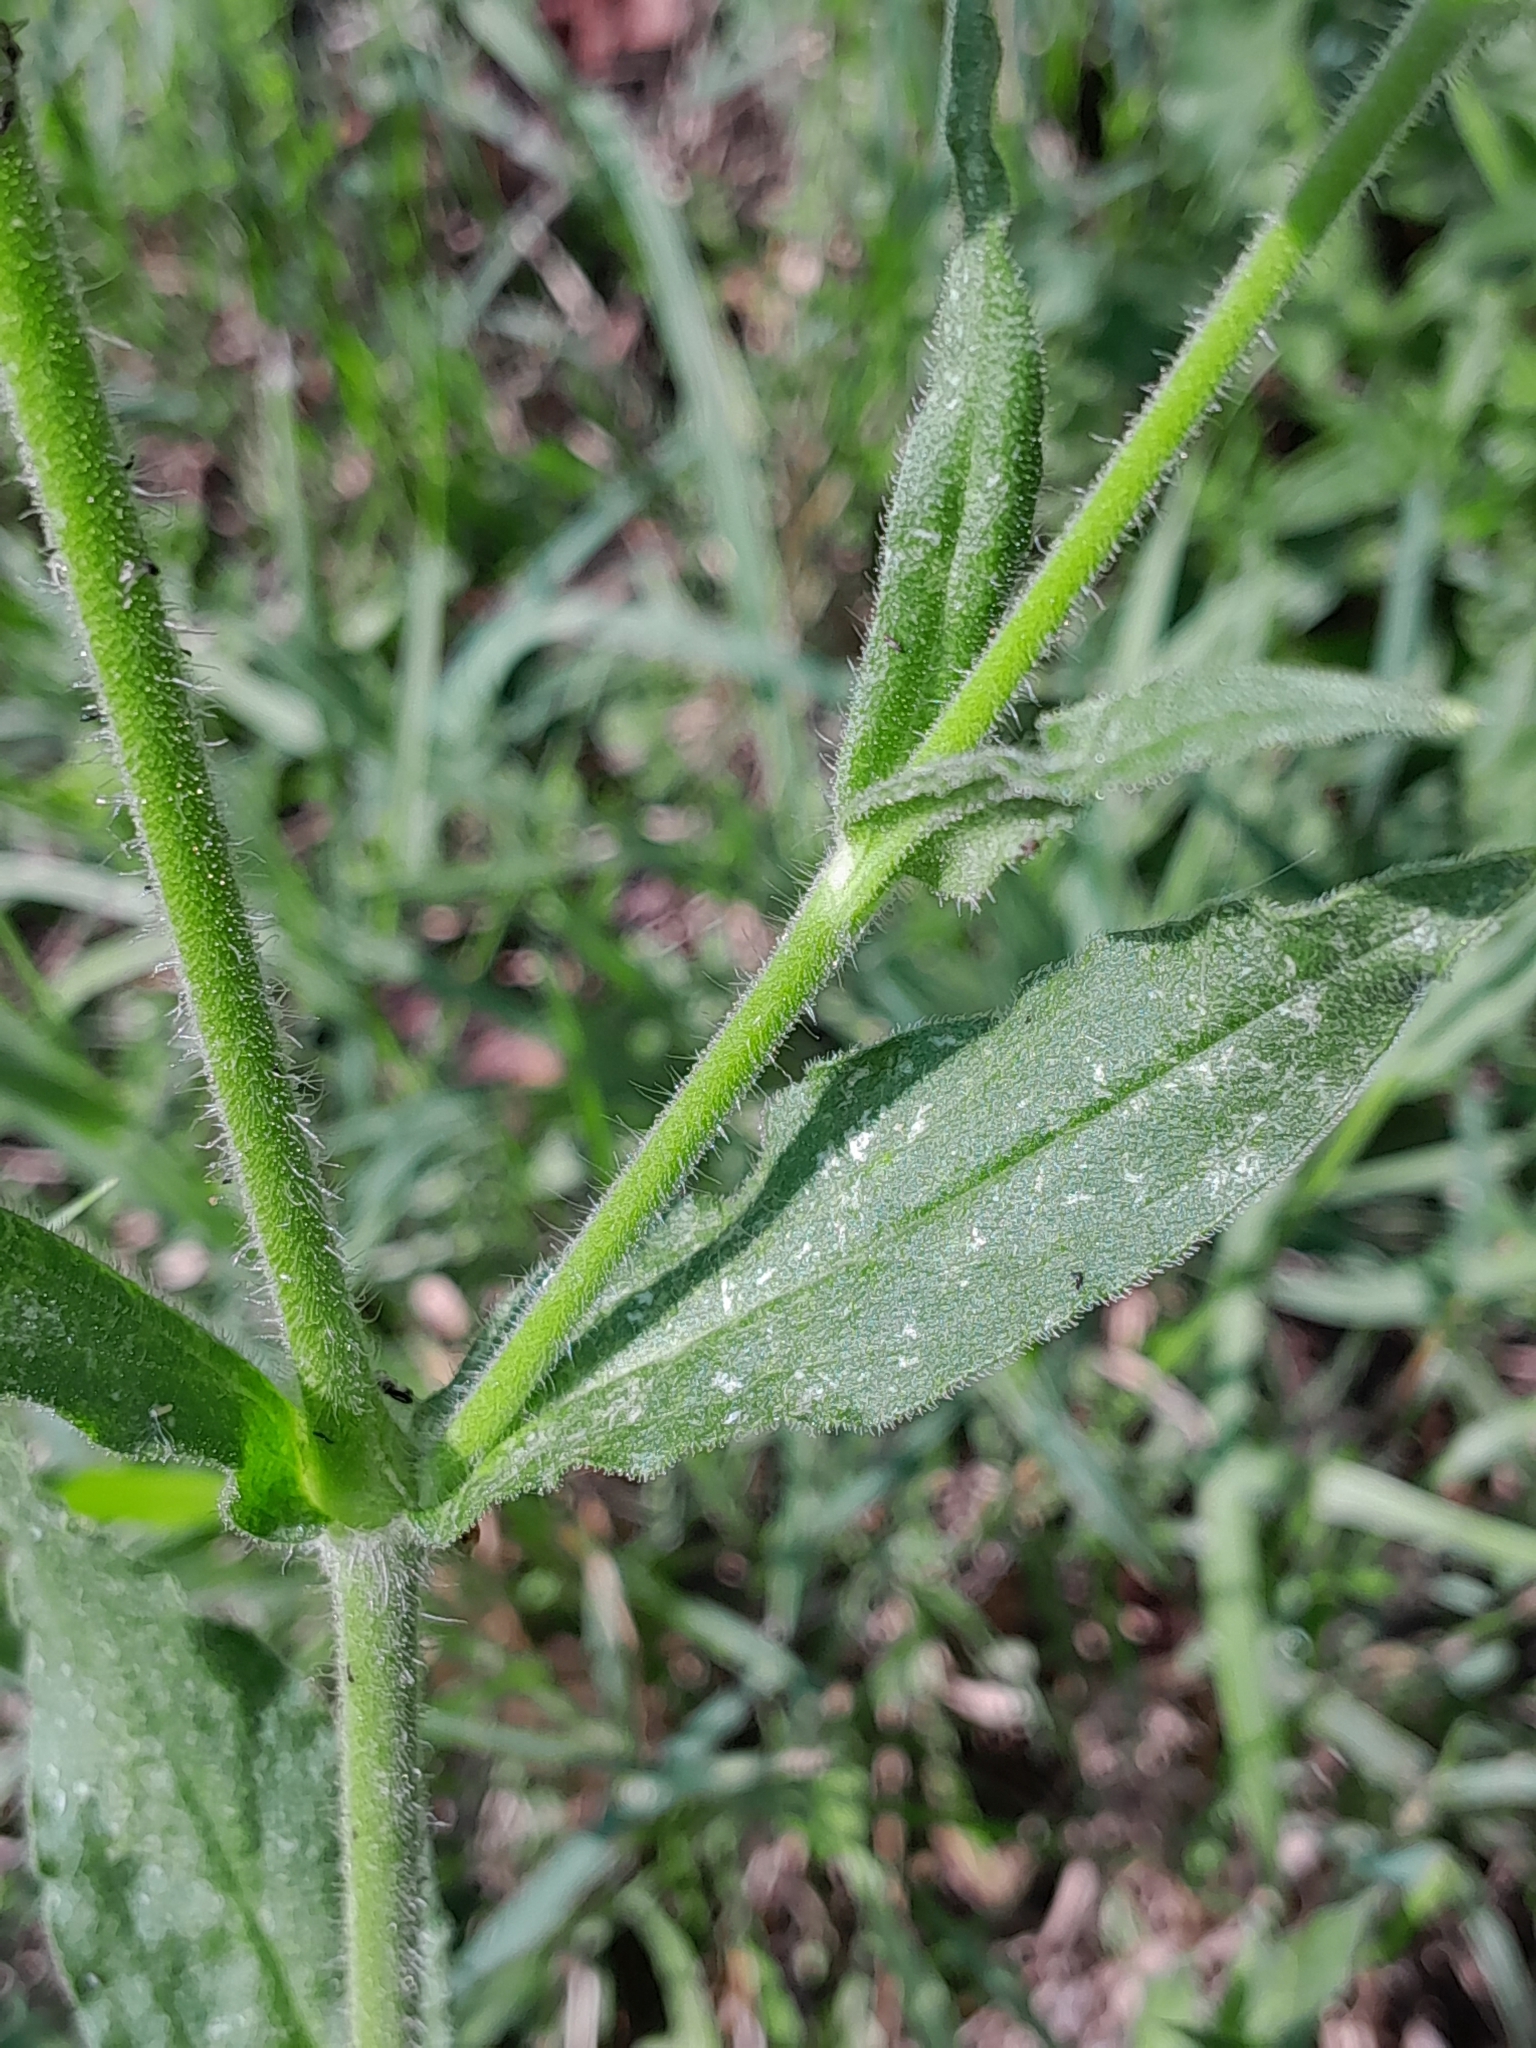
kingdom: Plantae
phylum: Tracheophyta
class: Magnoliopsida
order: Caryophyllales
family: Caryophyllaceae
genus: Silene
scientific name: Silene noctiflora
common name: Night-flowering catchfly
